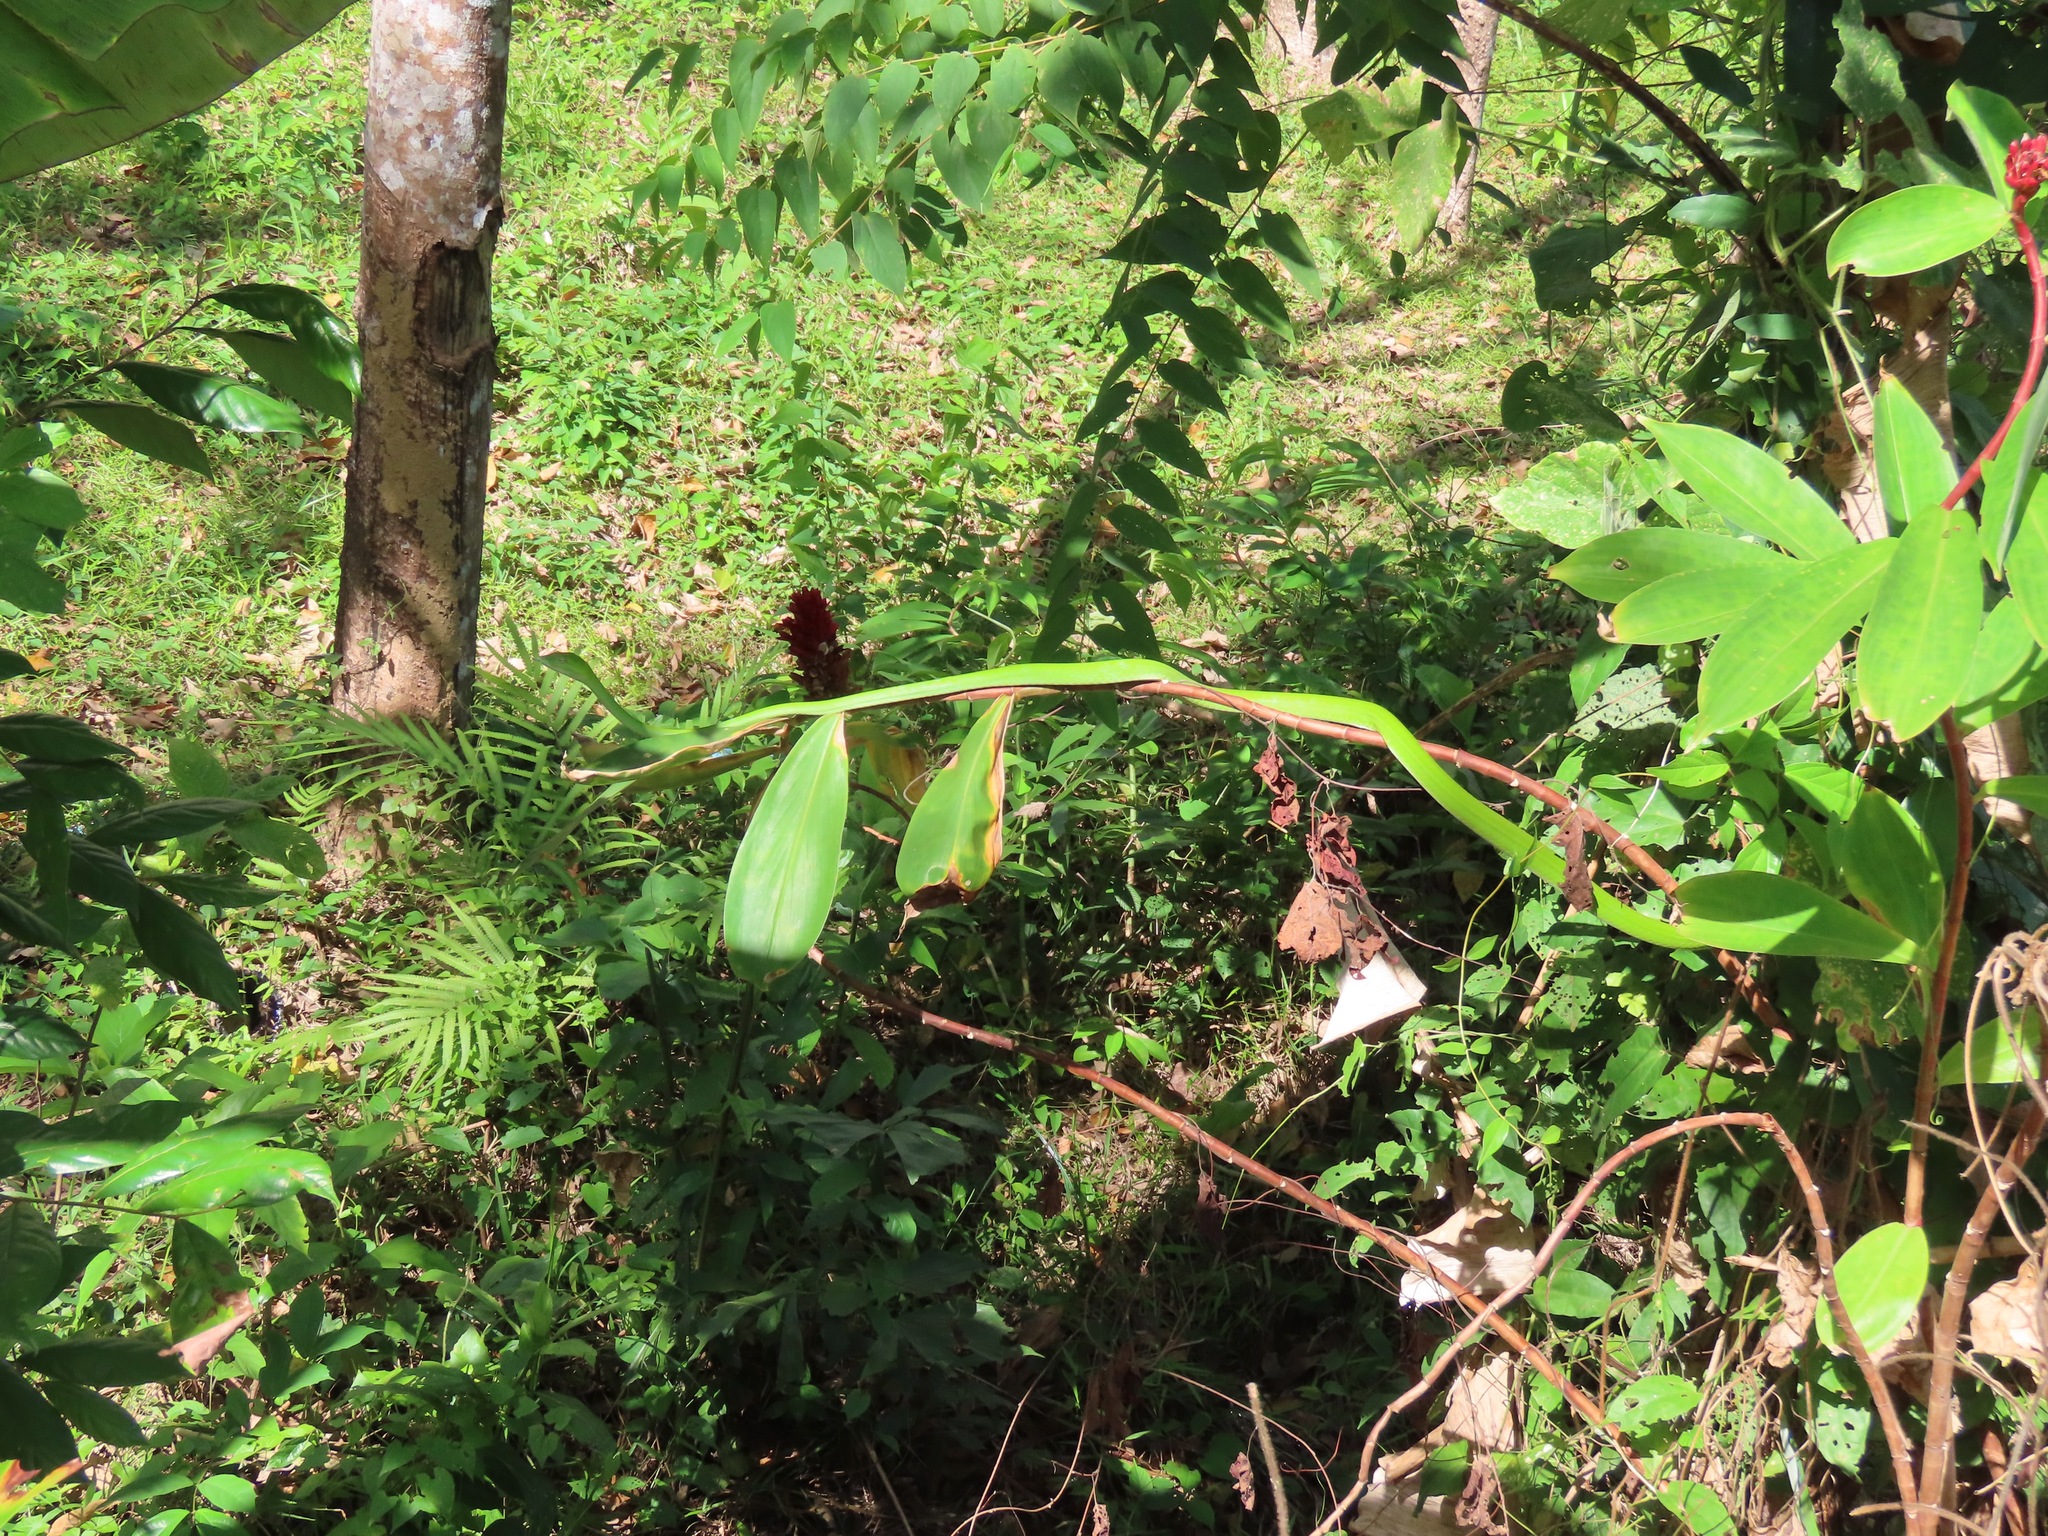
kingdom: Animalia
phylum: Chordata
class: Squamata
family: Colubridae
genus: Ahaetulla
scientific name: Ahaetulla prasina
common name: Oriental whip snake
